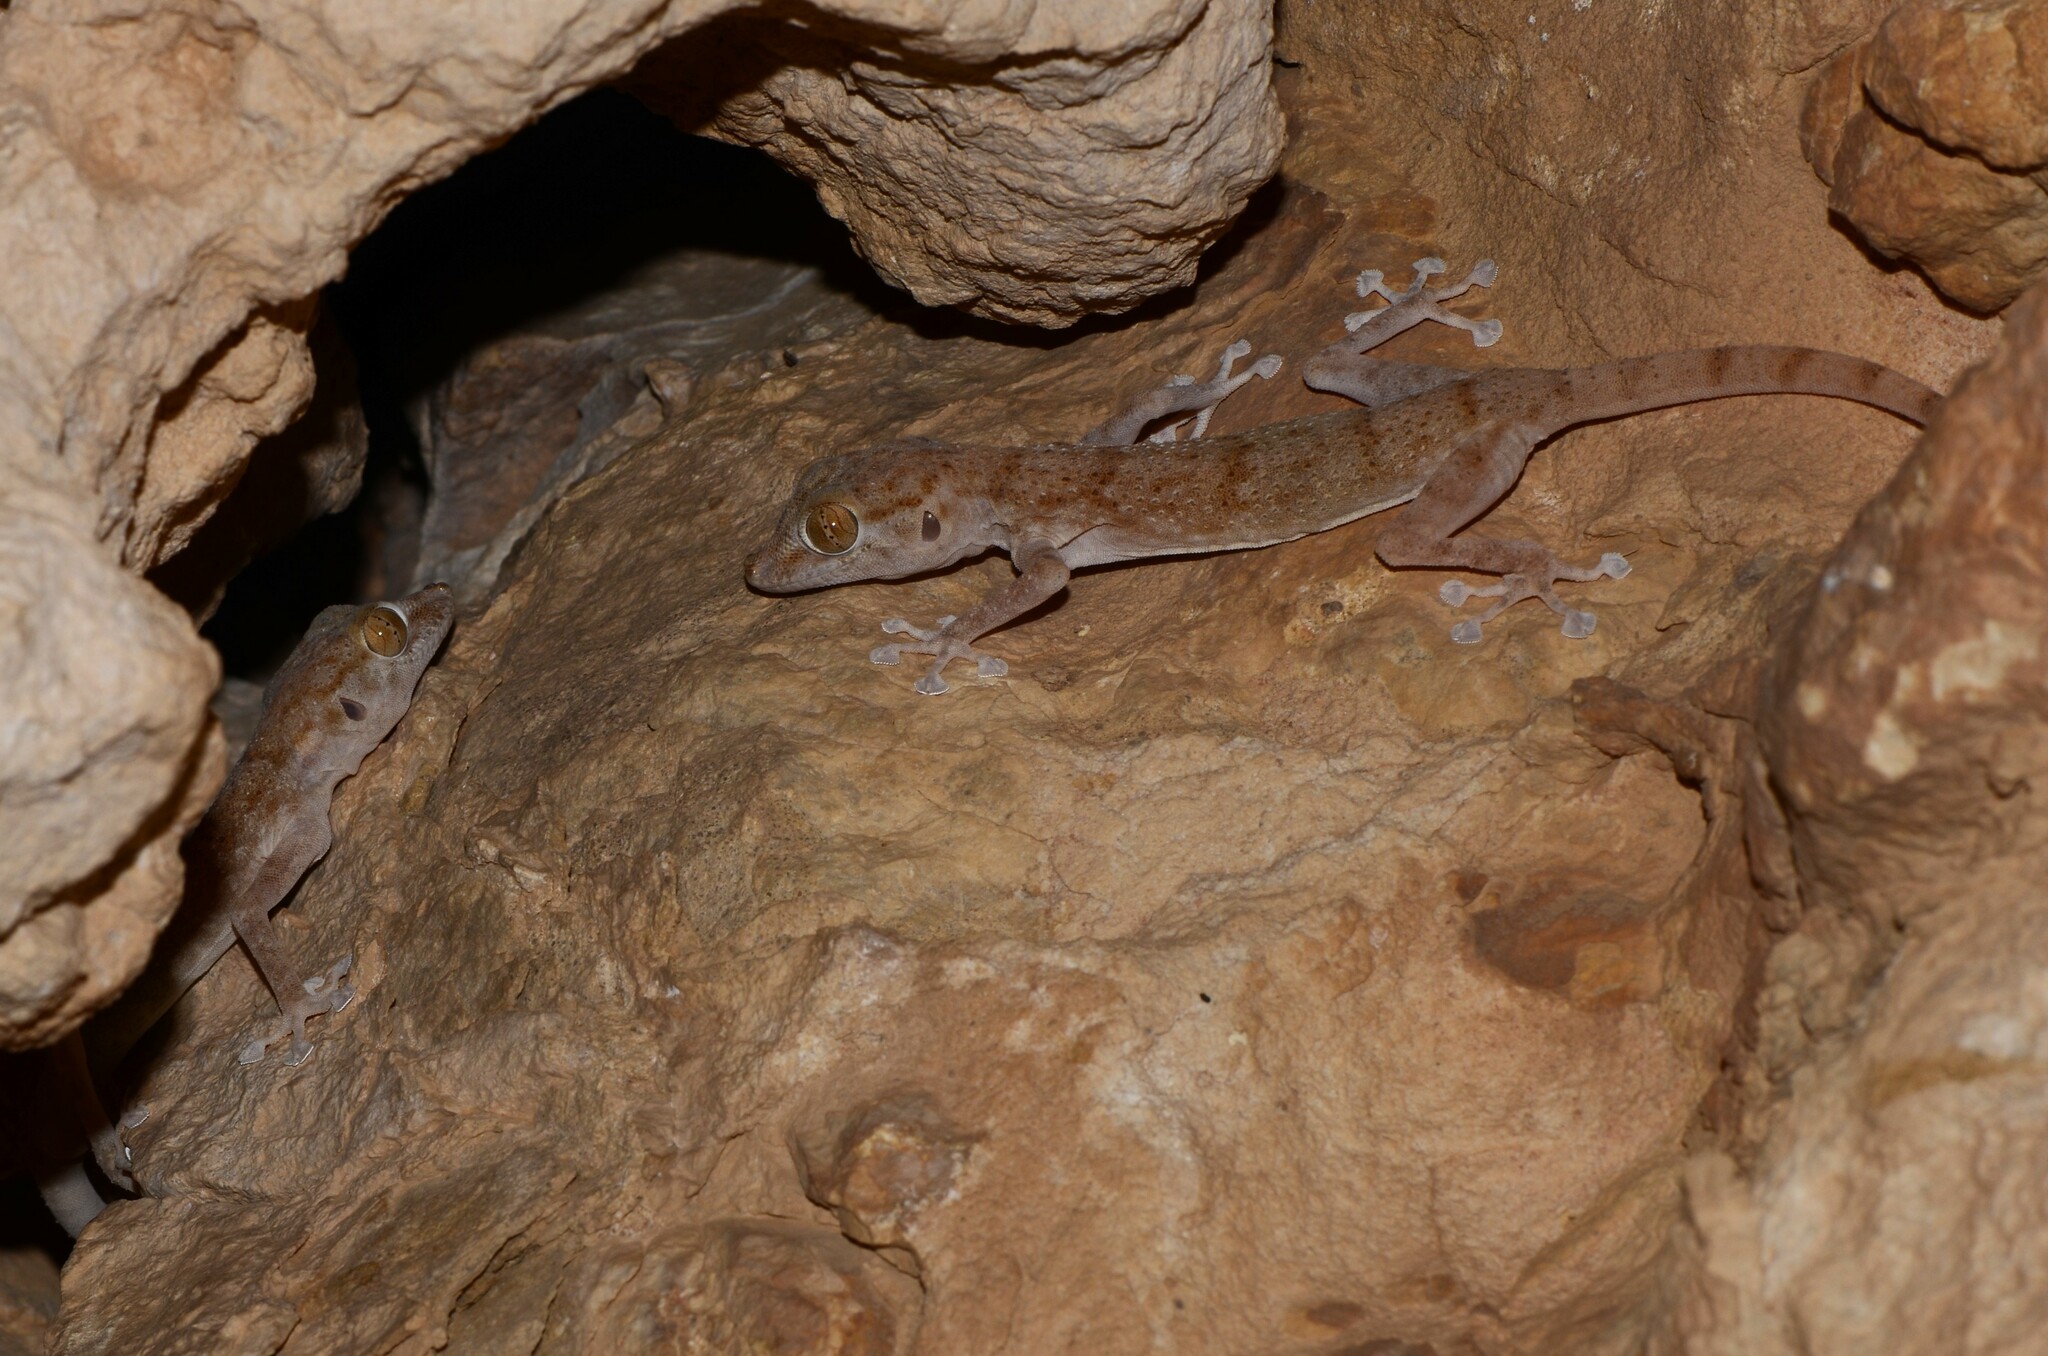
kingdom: Animalia
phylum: Chordata
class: Squamata
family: Phyllodactylidae
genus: Ptyodactylus
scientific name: Ptyodactylus hasselquistii
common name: Hasselquist’s fan-footed gecko
